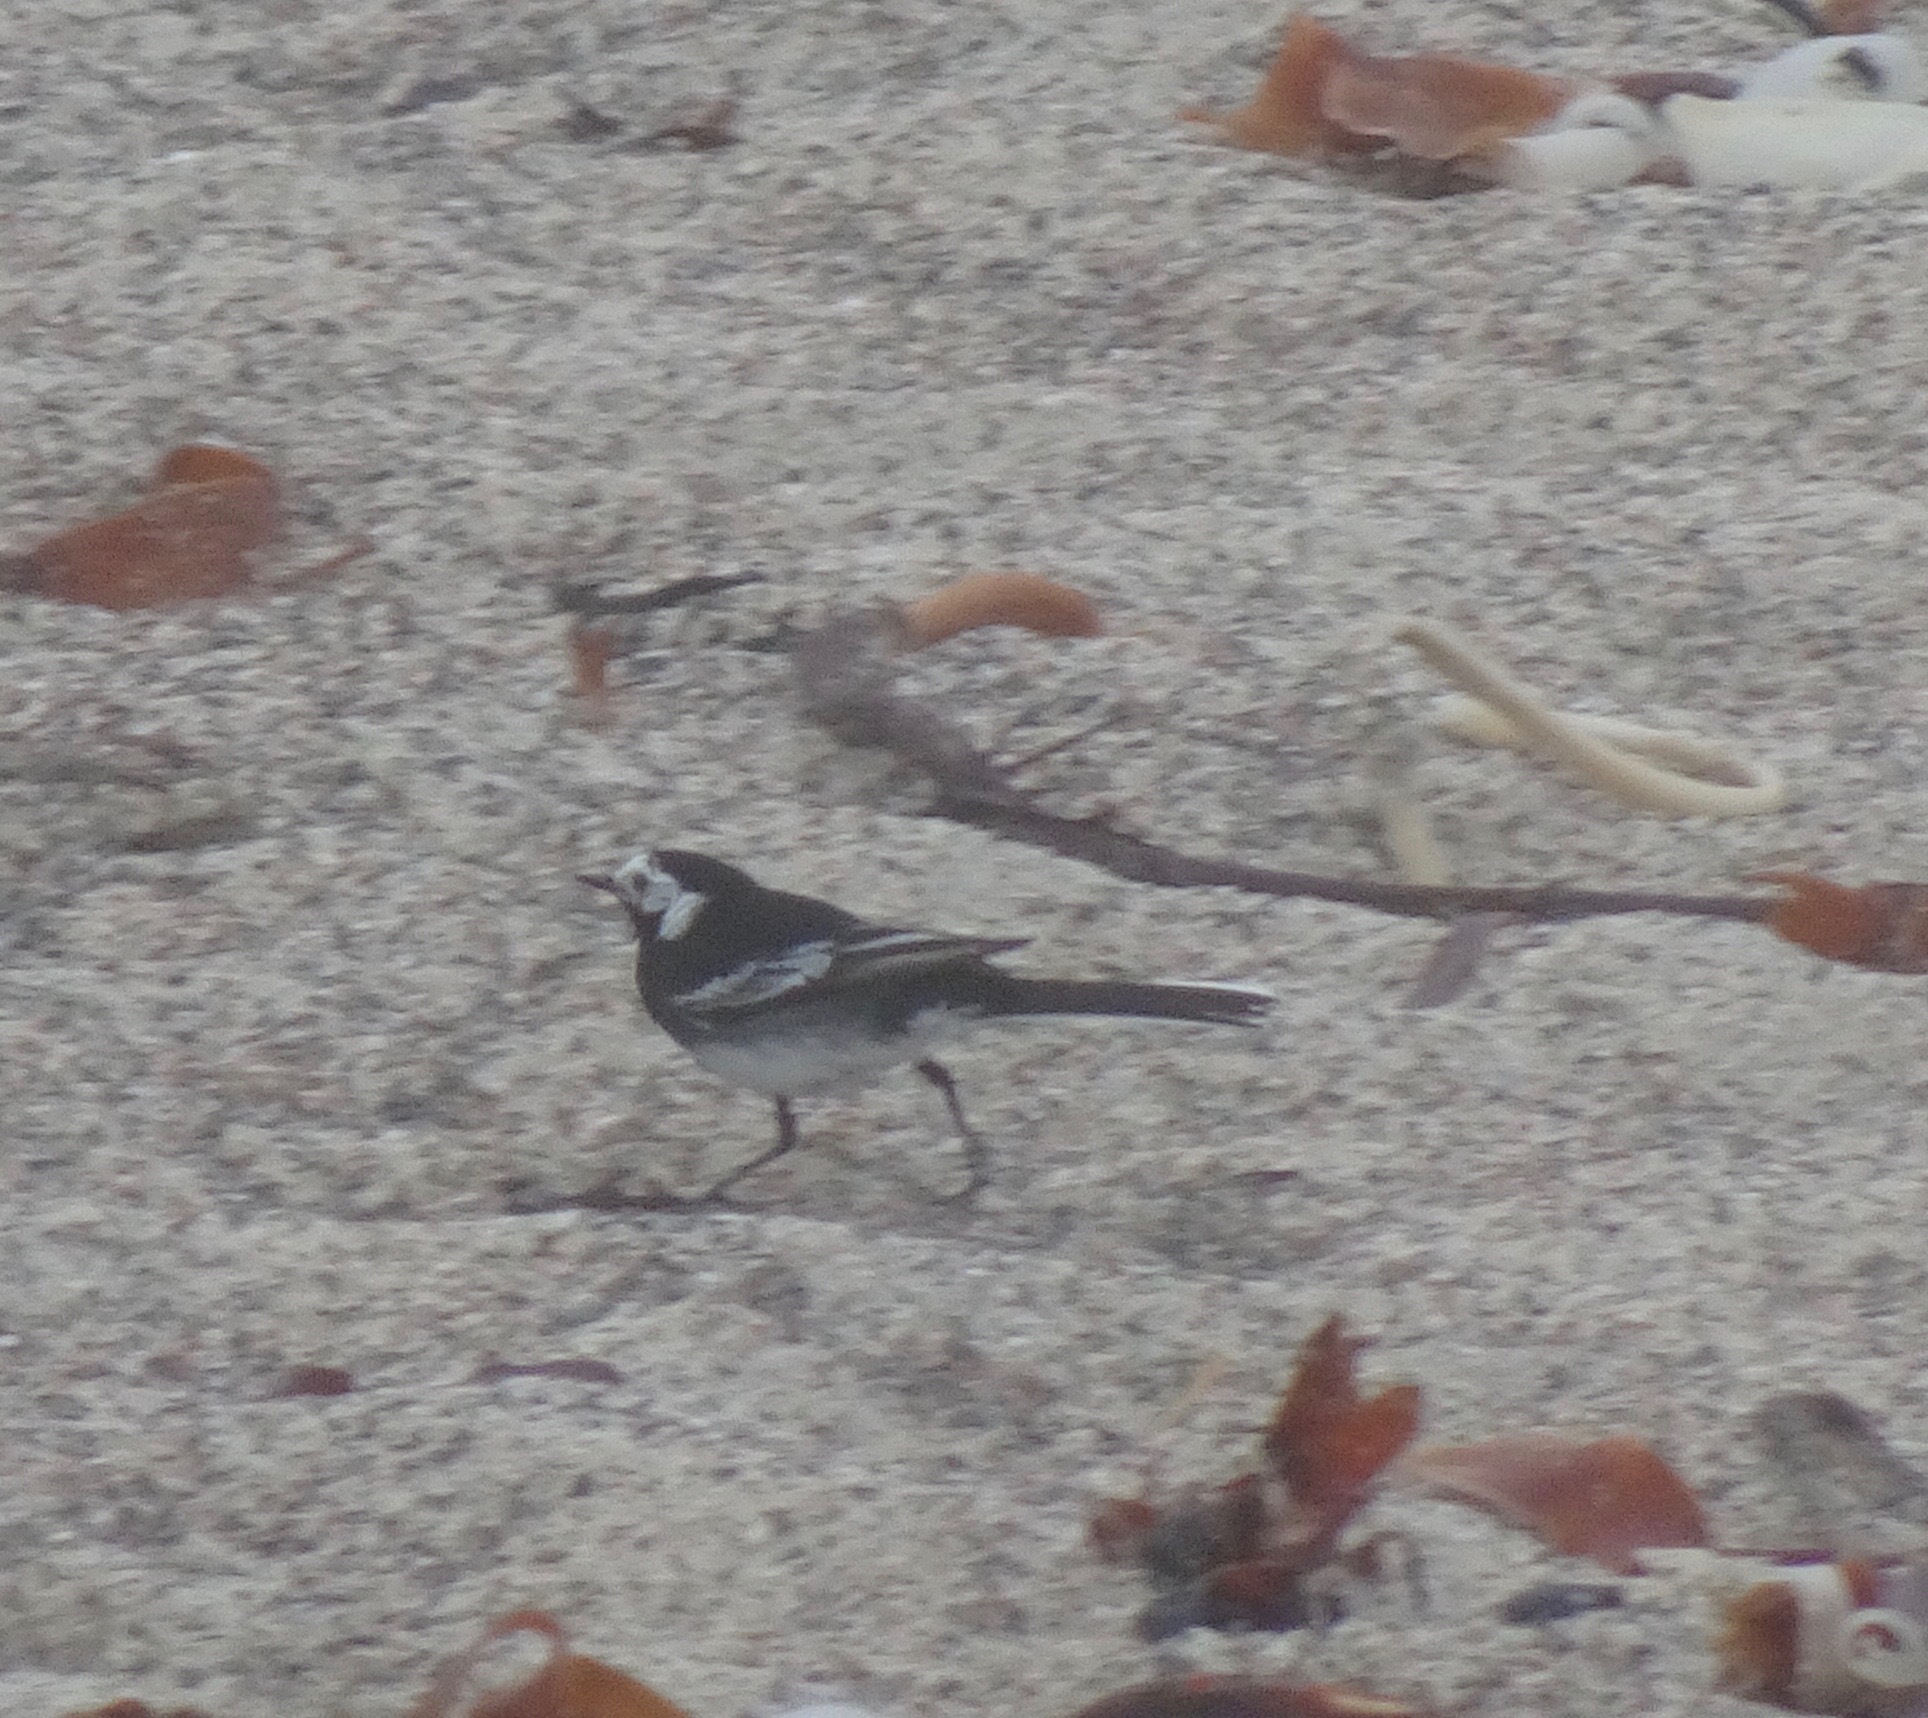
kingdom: Animalia
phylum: Chordata
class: Aves
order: Passeriformes
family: Motacillidae
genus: Motacilla
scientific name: Motacilla alba
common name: White wagtail
